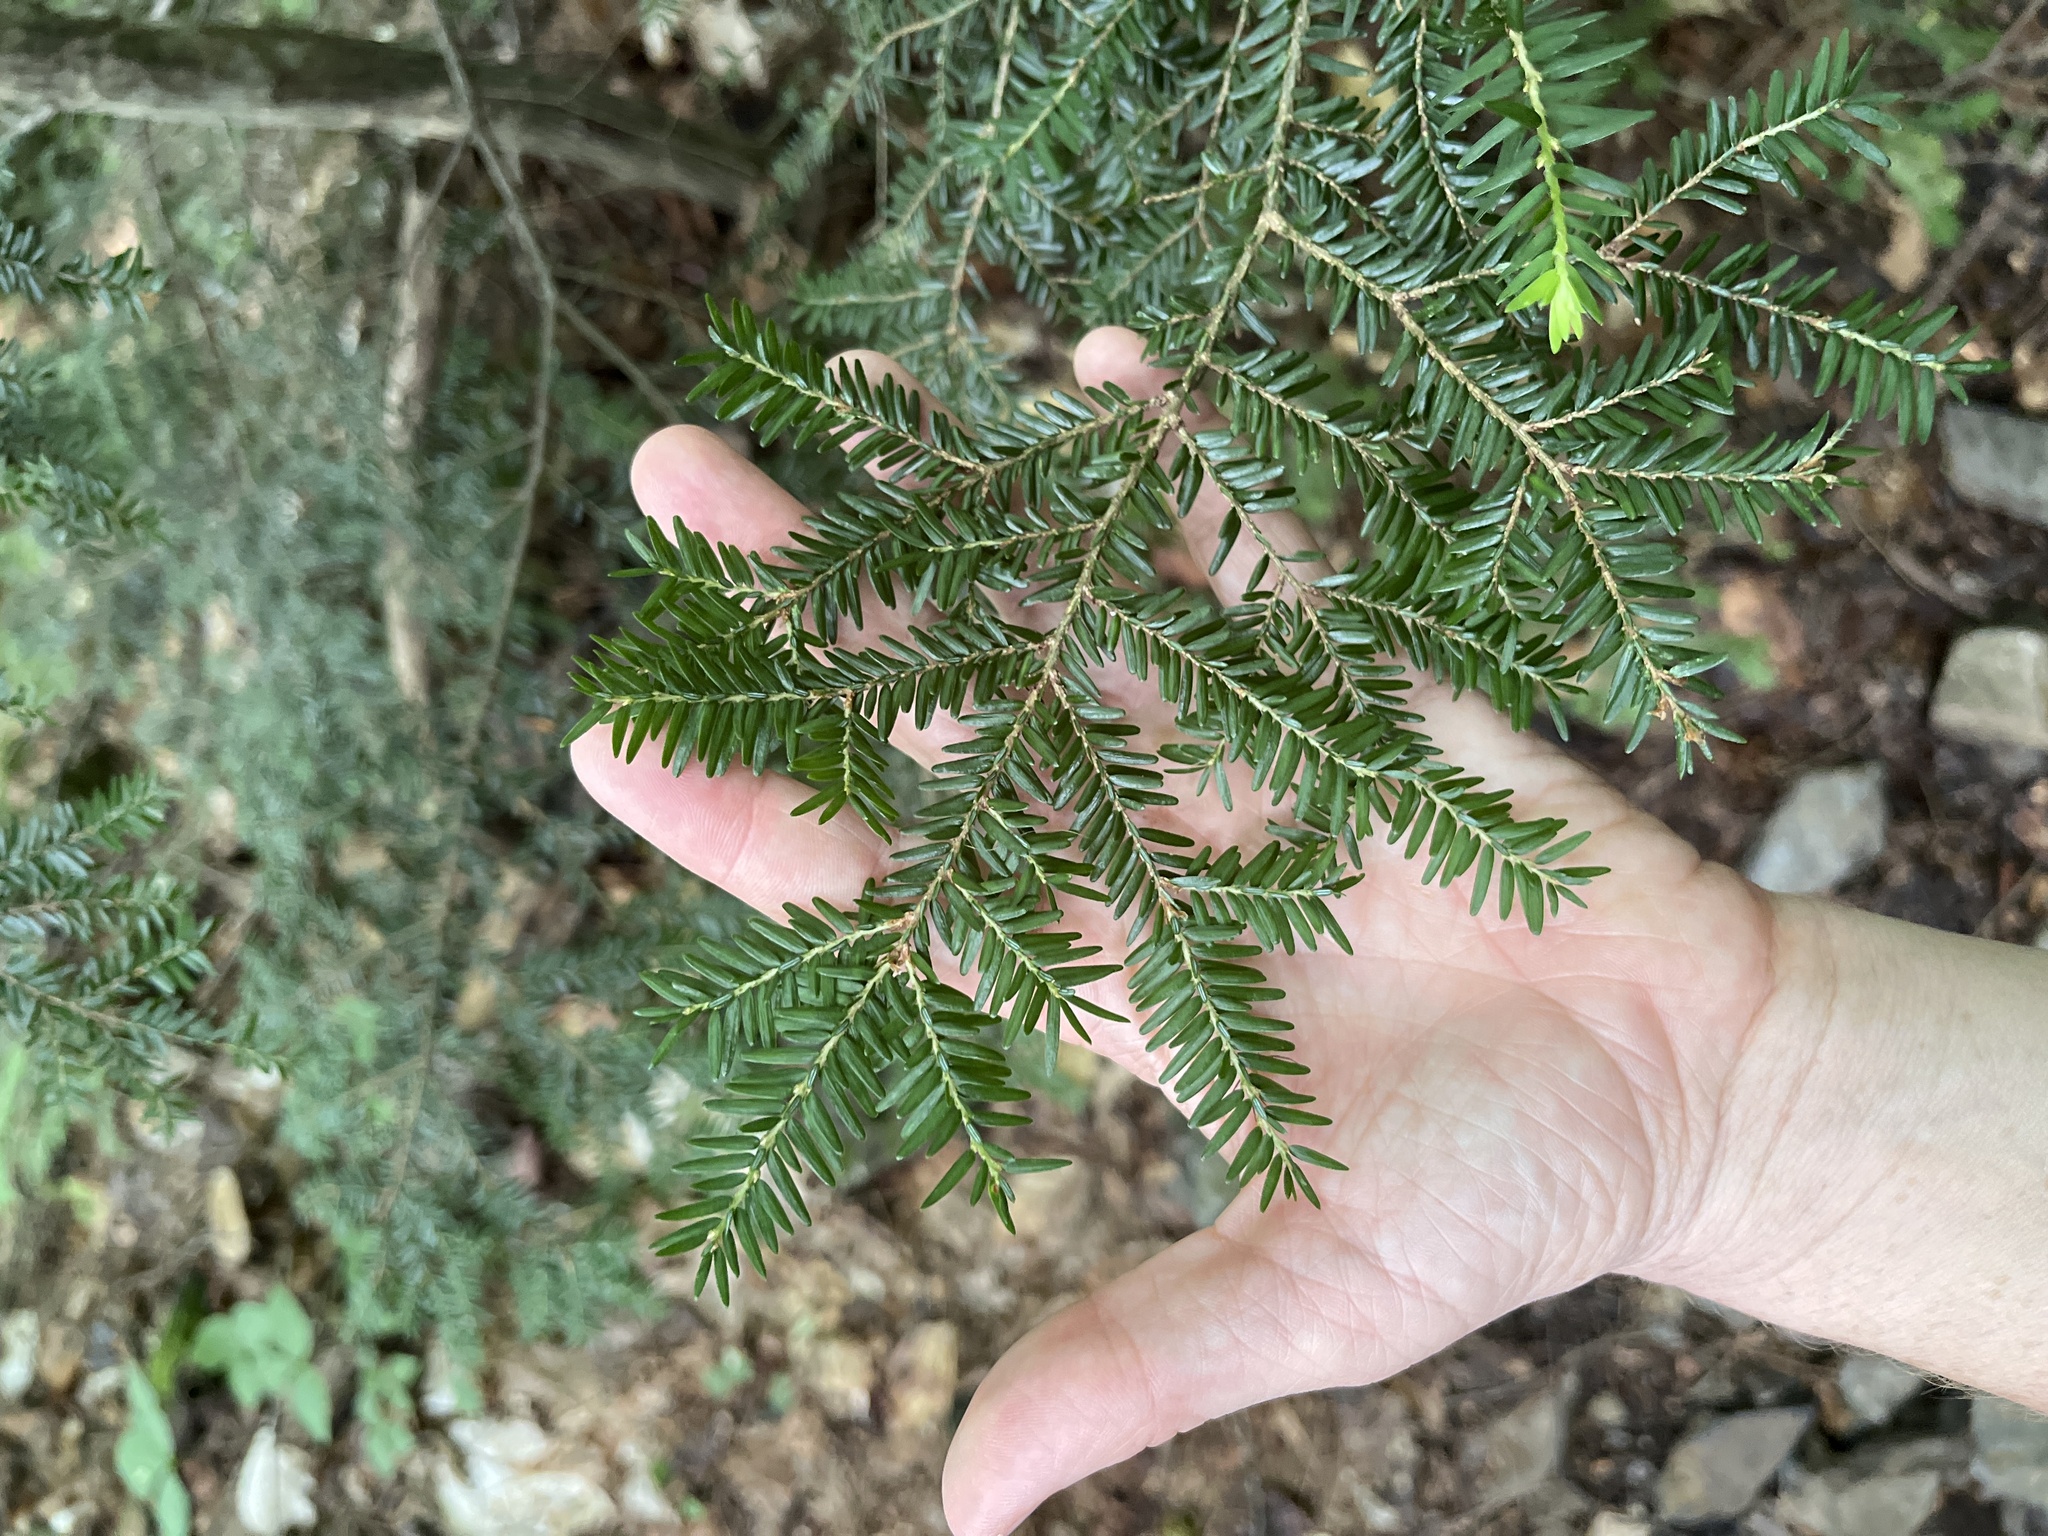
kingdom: Plantae
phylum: Tracheophyta
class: Pinopsida
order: Pinales
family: Pinaceae
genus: Tsuga
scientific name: Tsuga canadensis
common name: Eastern hemlock
